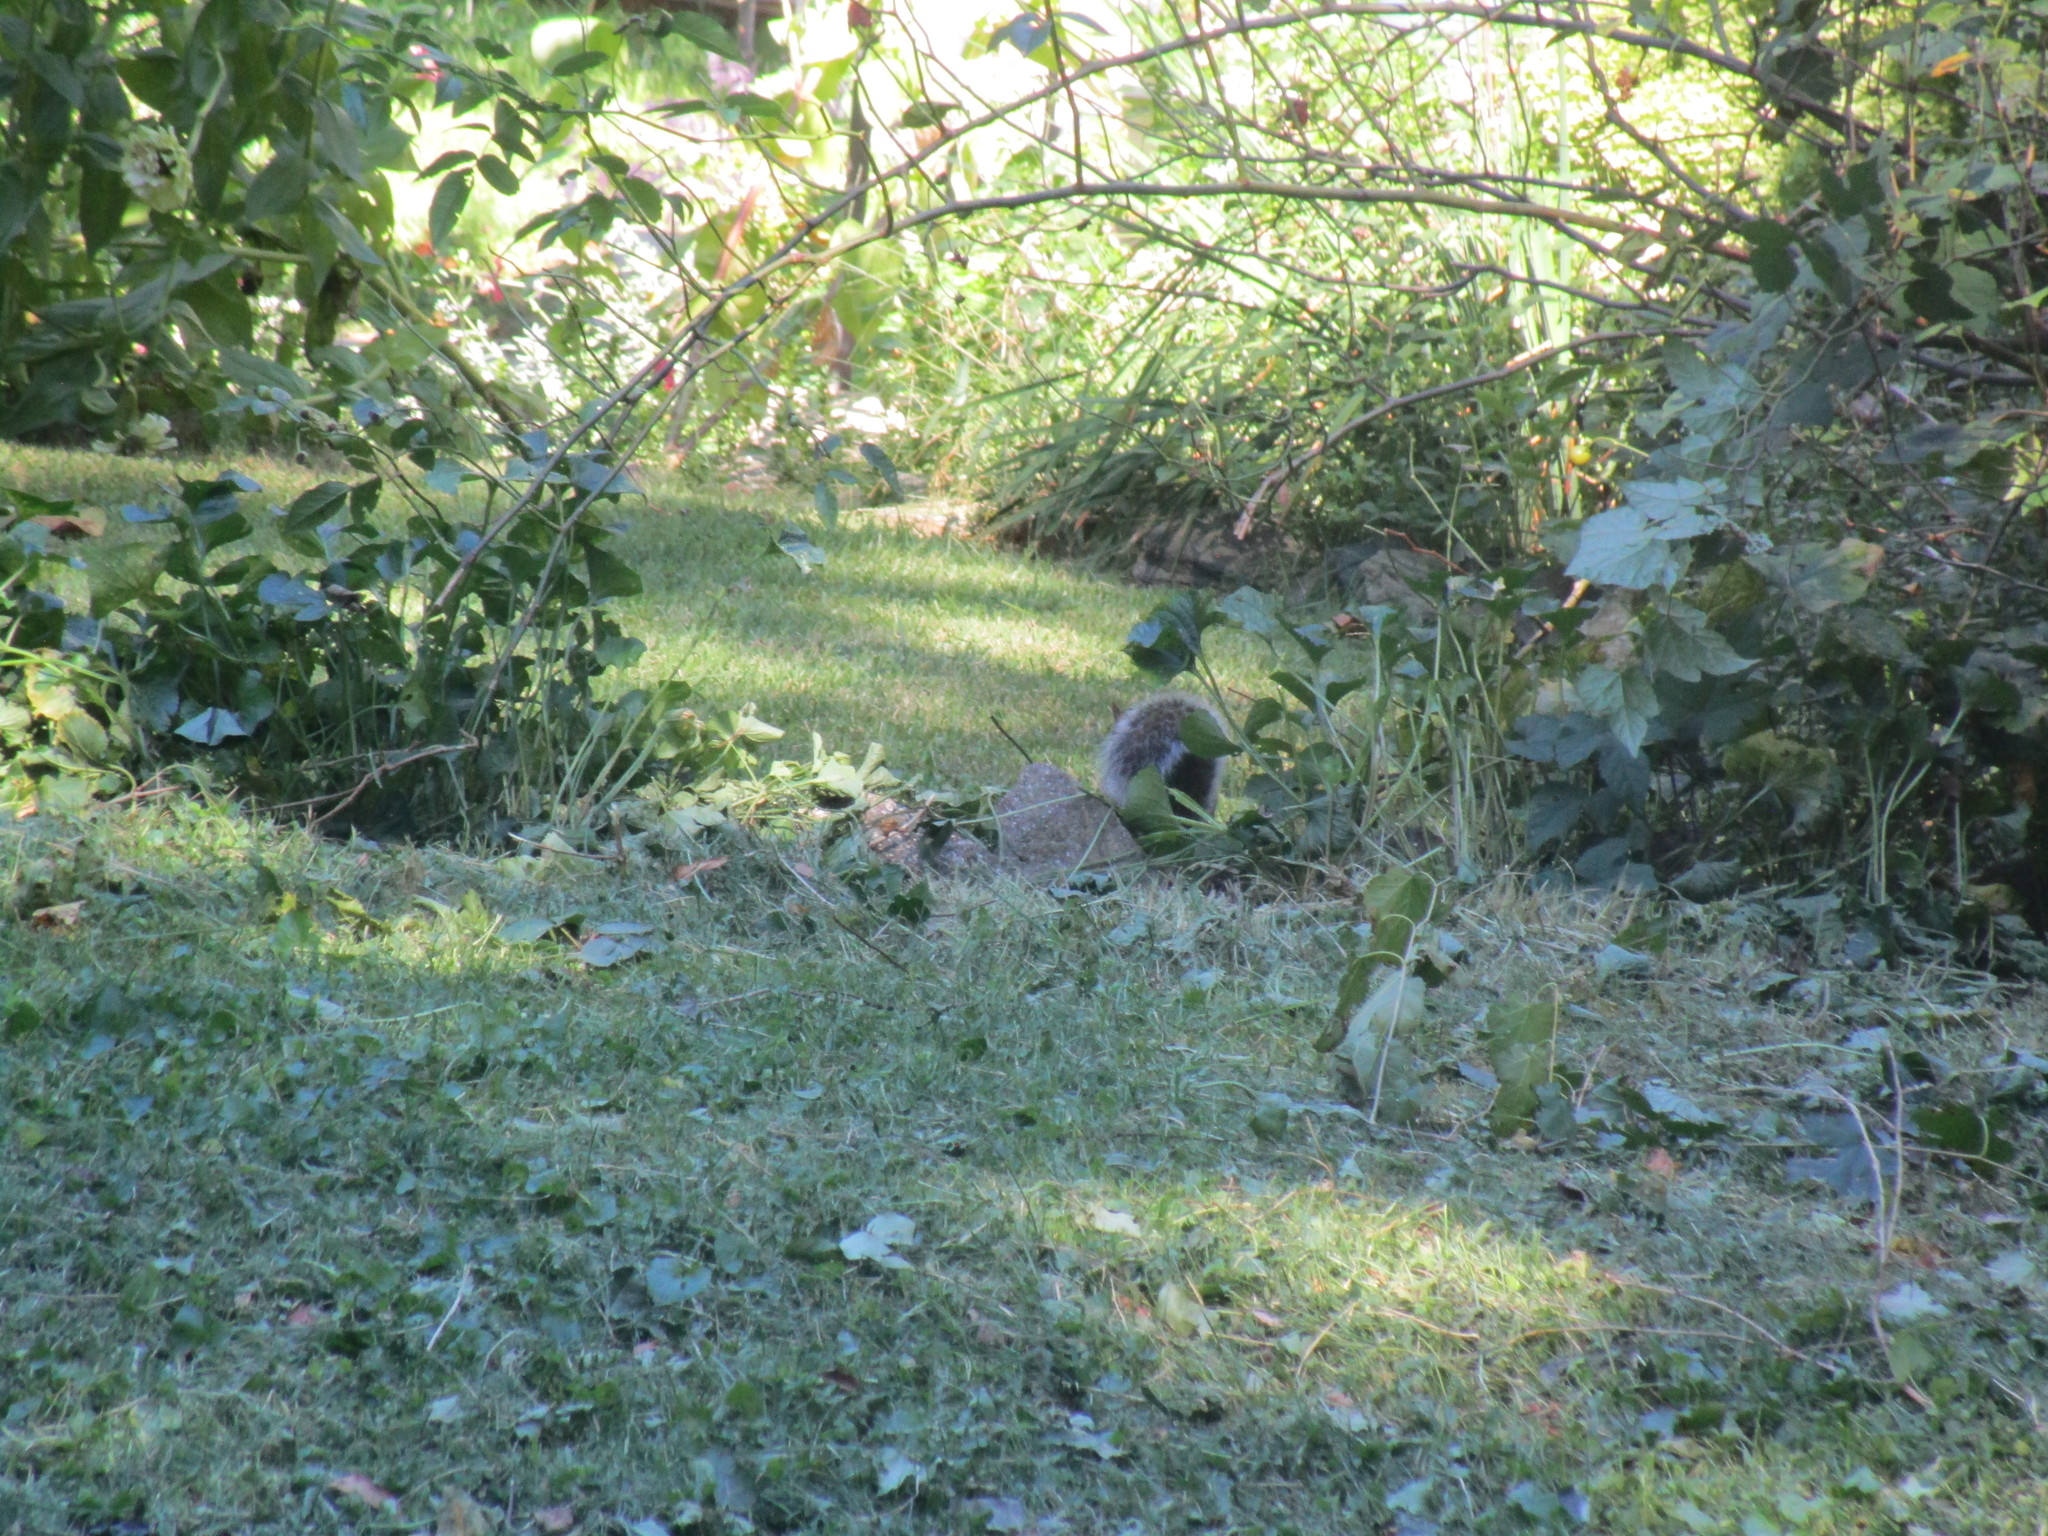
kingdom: Animalia
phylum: Chordata
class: Mammalia
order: Rodentia
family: Sciuridae
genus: Sciurus
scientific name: Sciurus carolinensis
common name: Eastern gray squirrel
